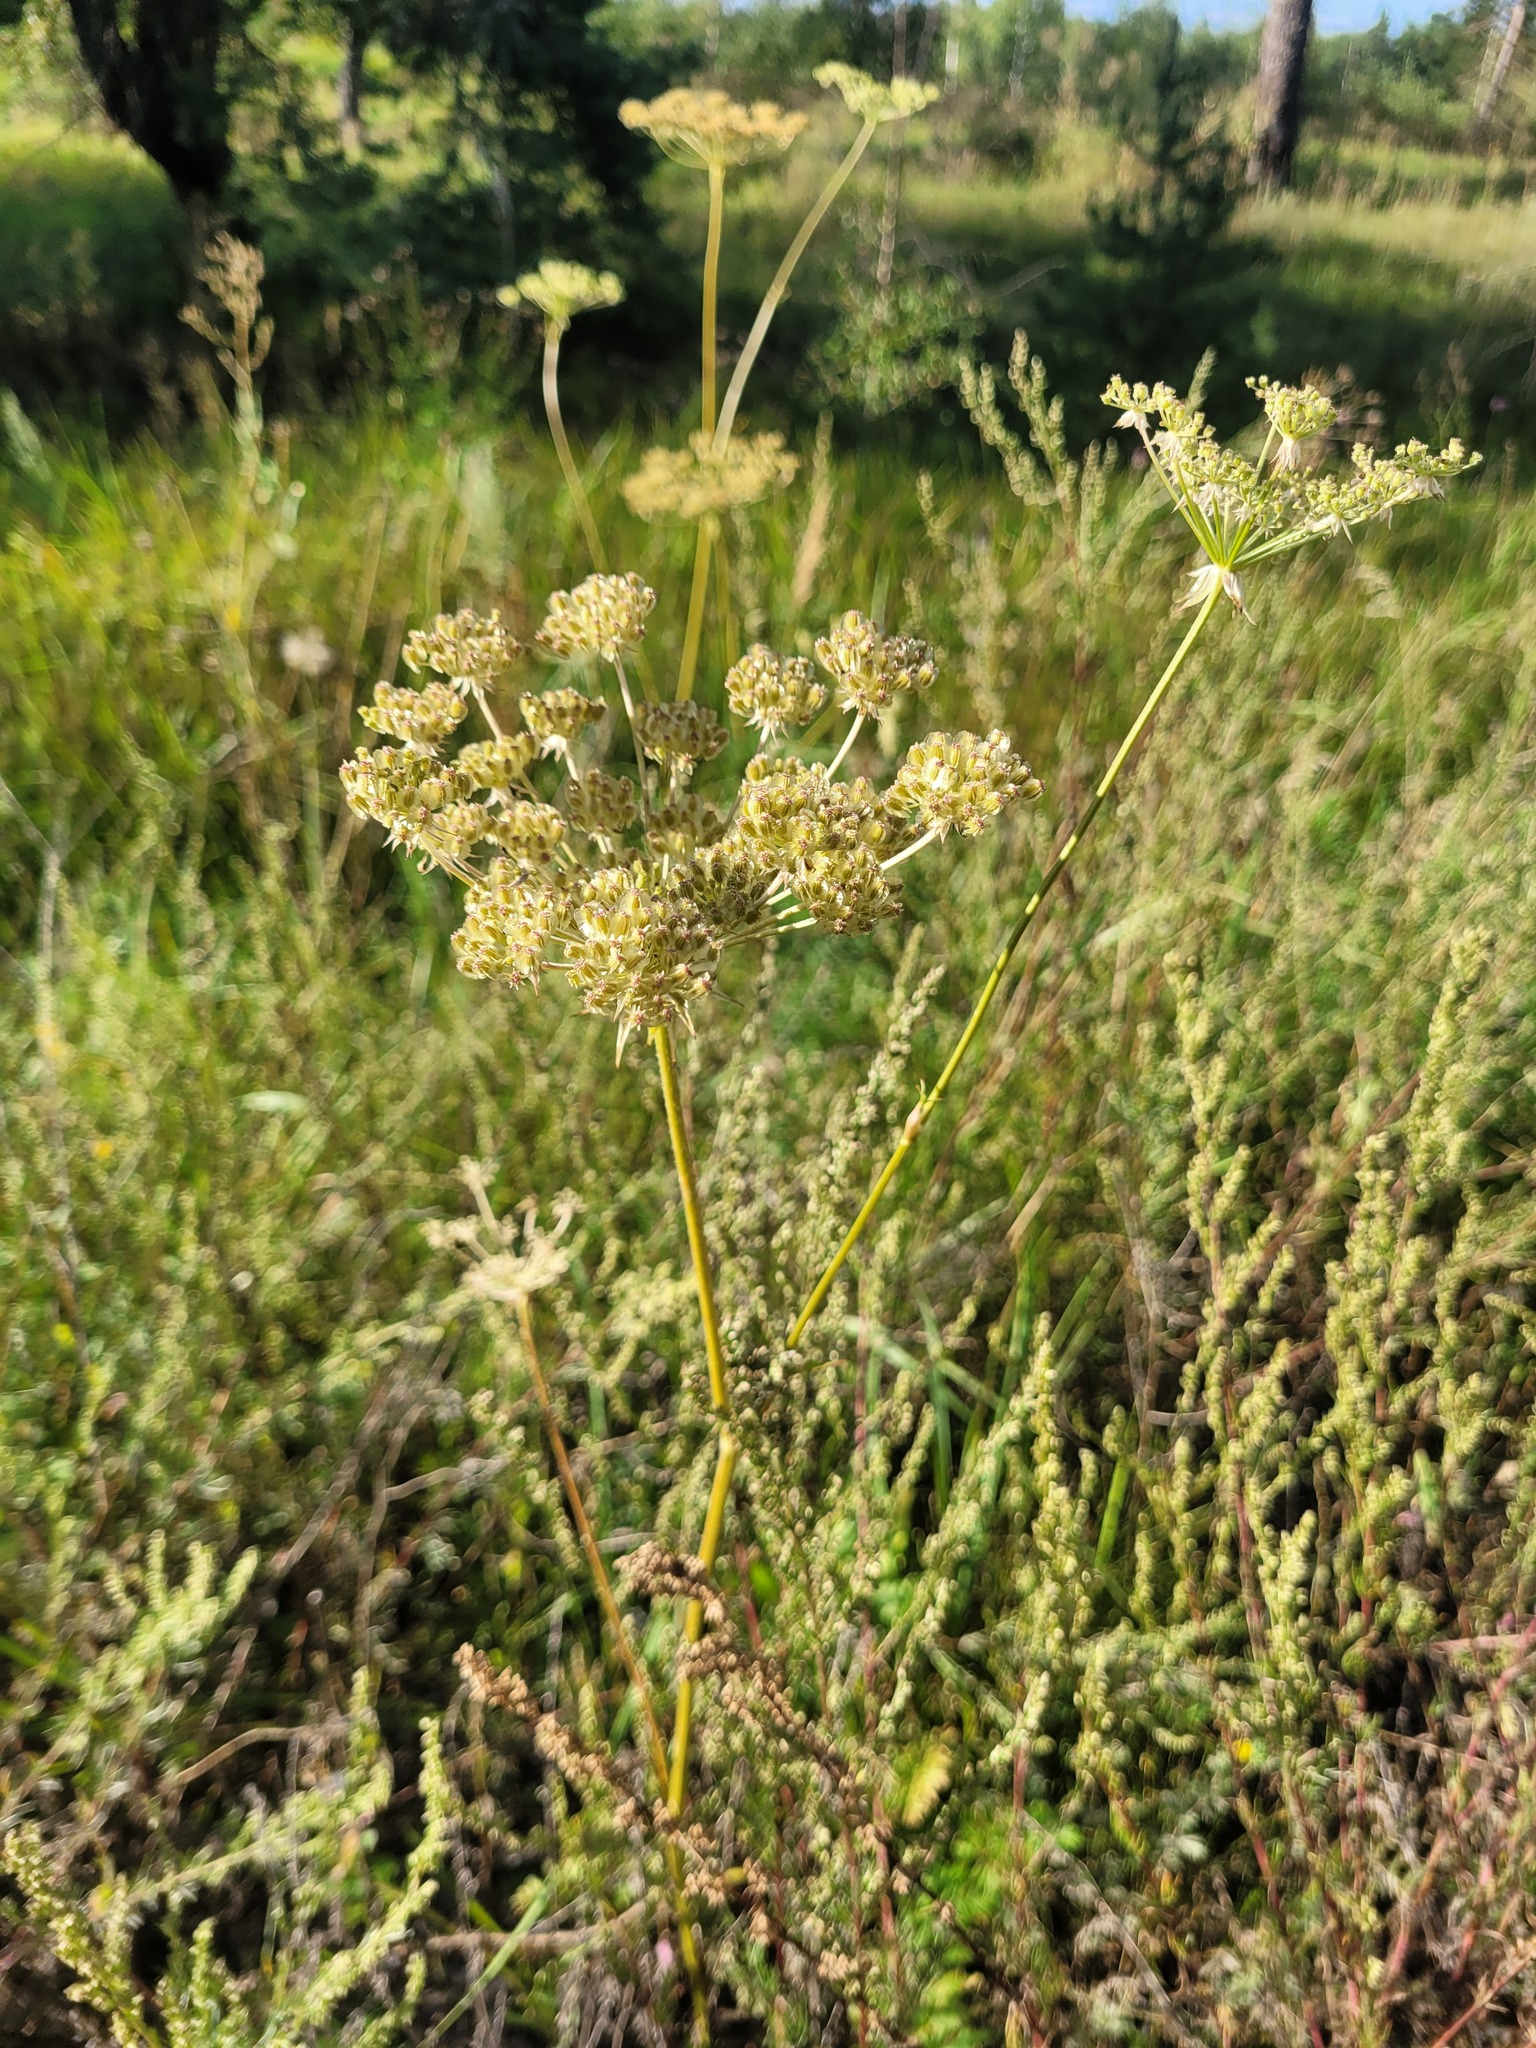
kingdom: Plantae
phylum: Tracheophyta
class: Magnoliopsida
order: Apiales
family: Apiaceae
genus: Silphiodaucus
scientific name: Silphiodaucus prutenicus
